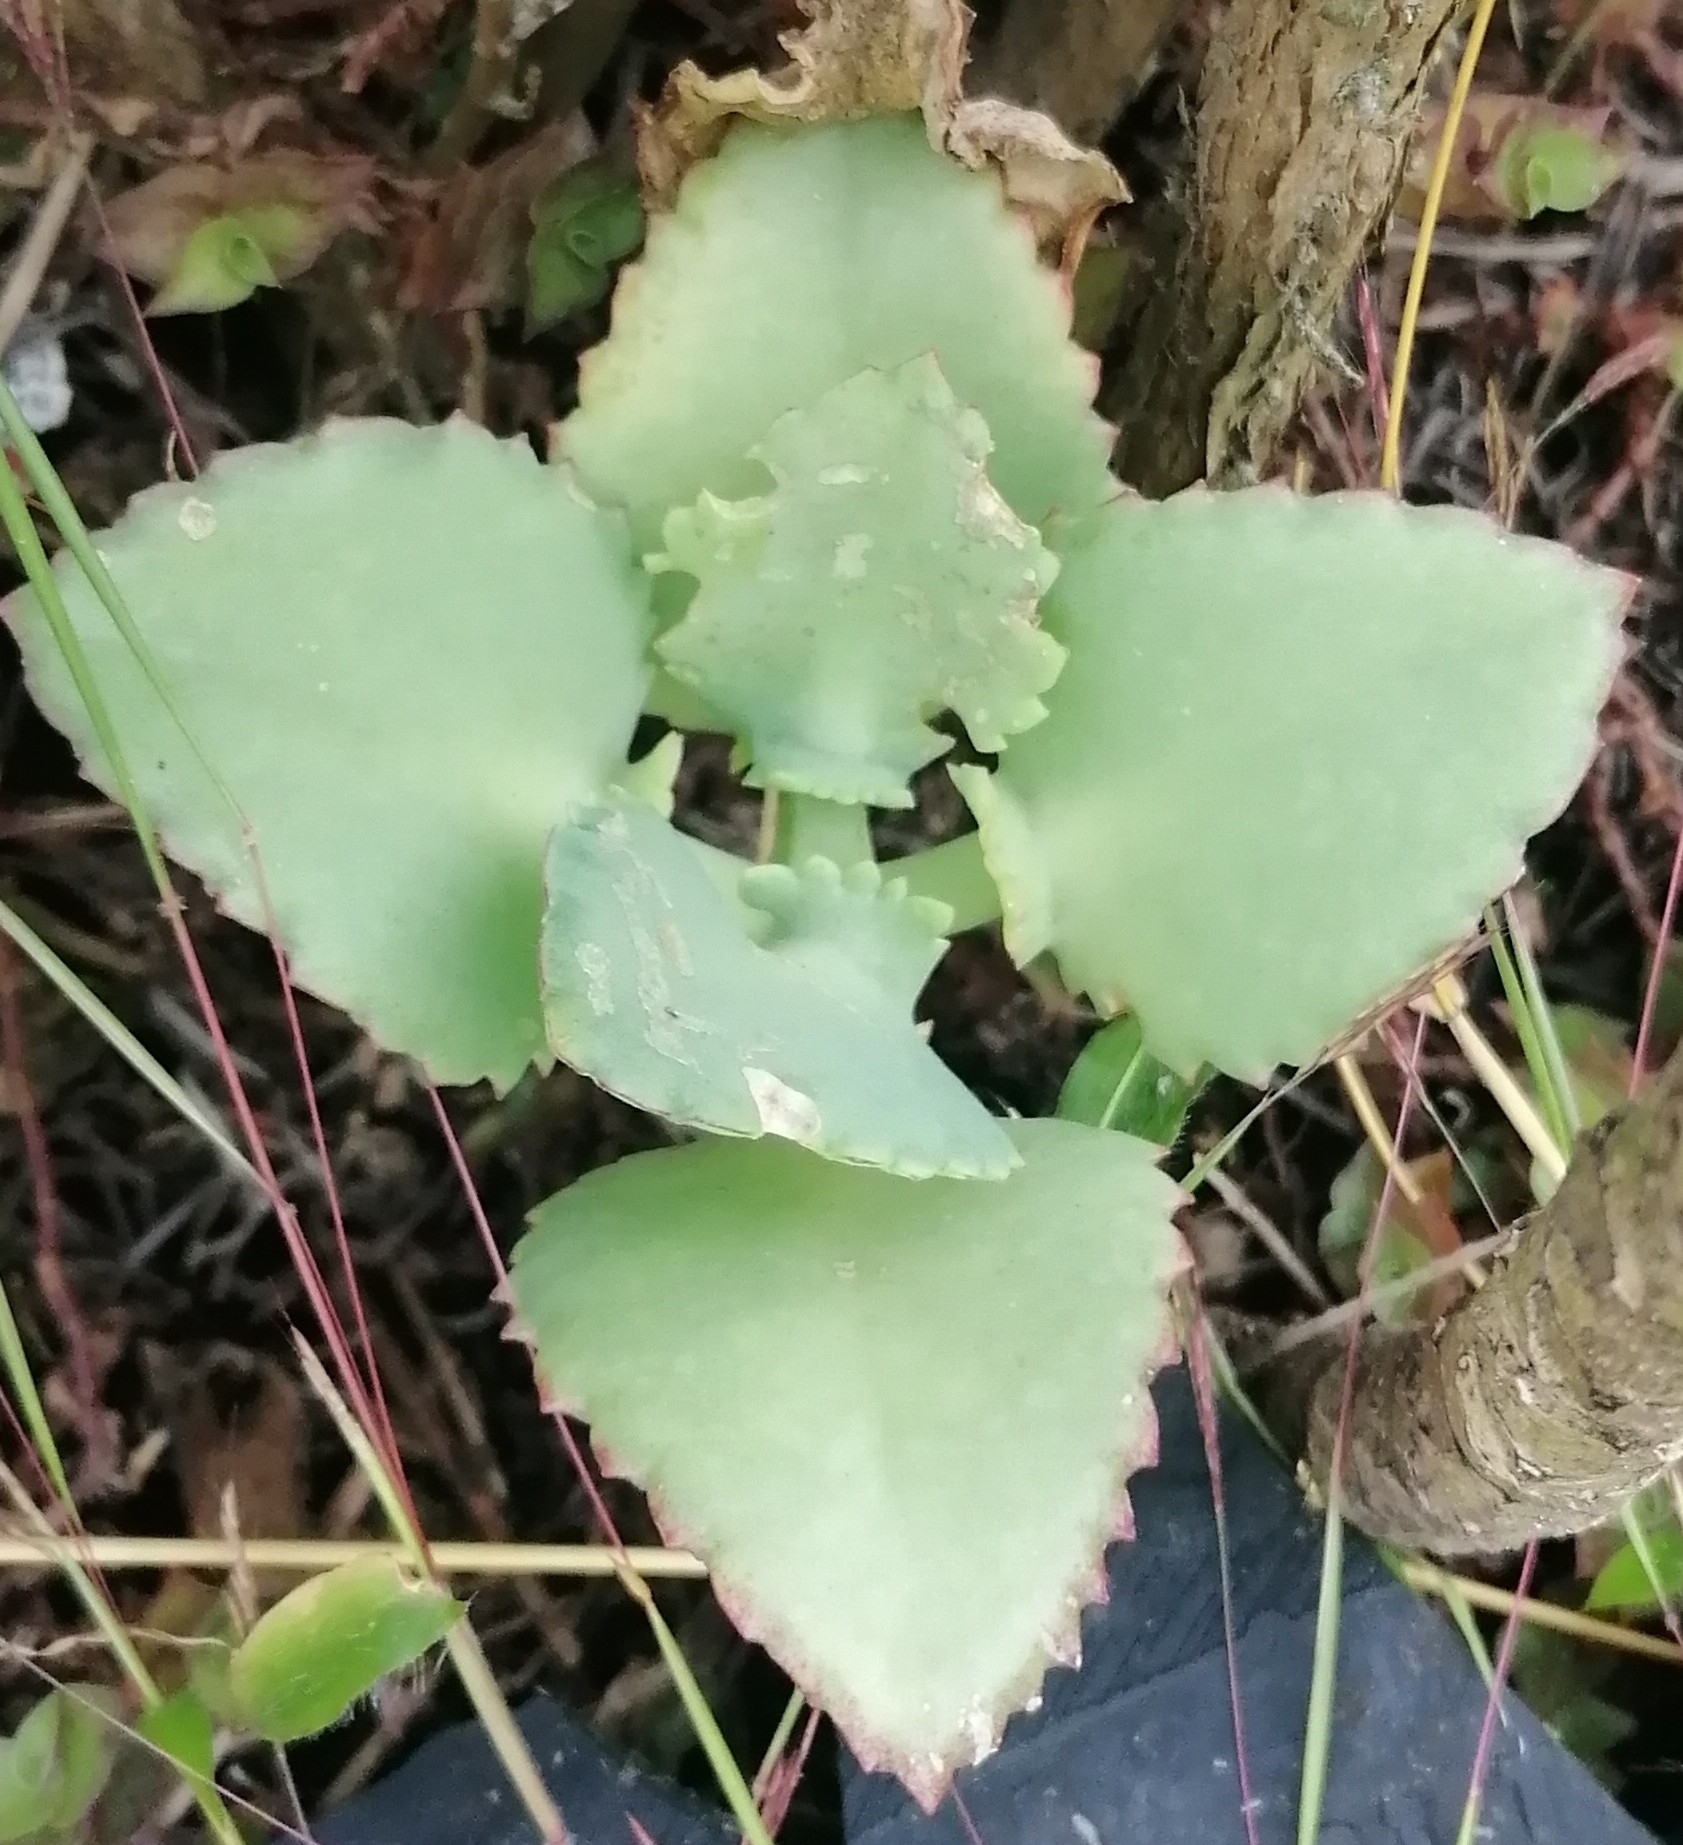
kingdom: Plantae
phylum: Tracheophyta
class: Magnoliopsida
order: Saxifragales
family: Crassulaceae
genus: Kalanchoe
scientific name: Kalanchoe laetivirens
